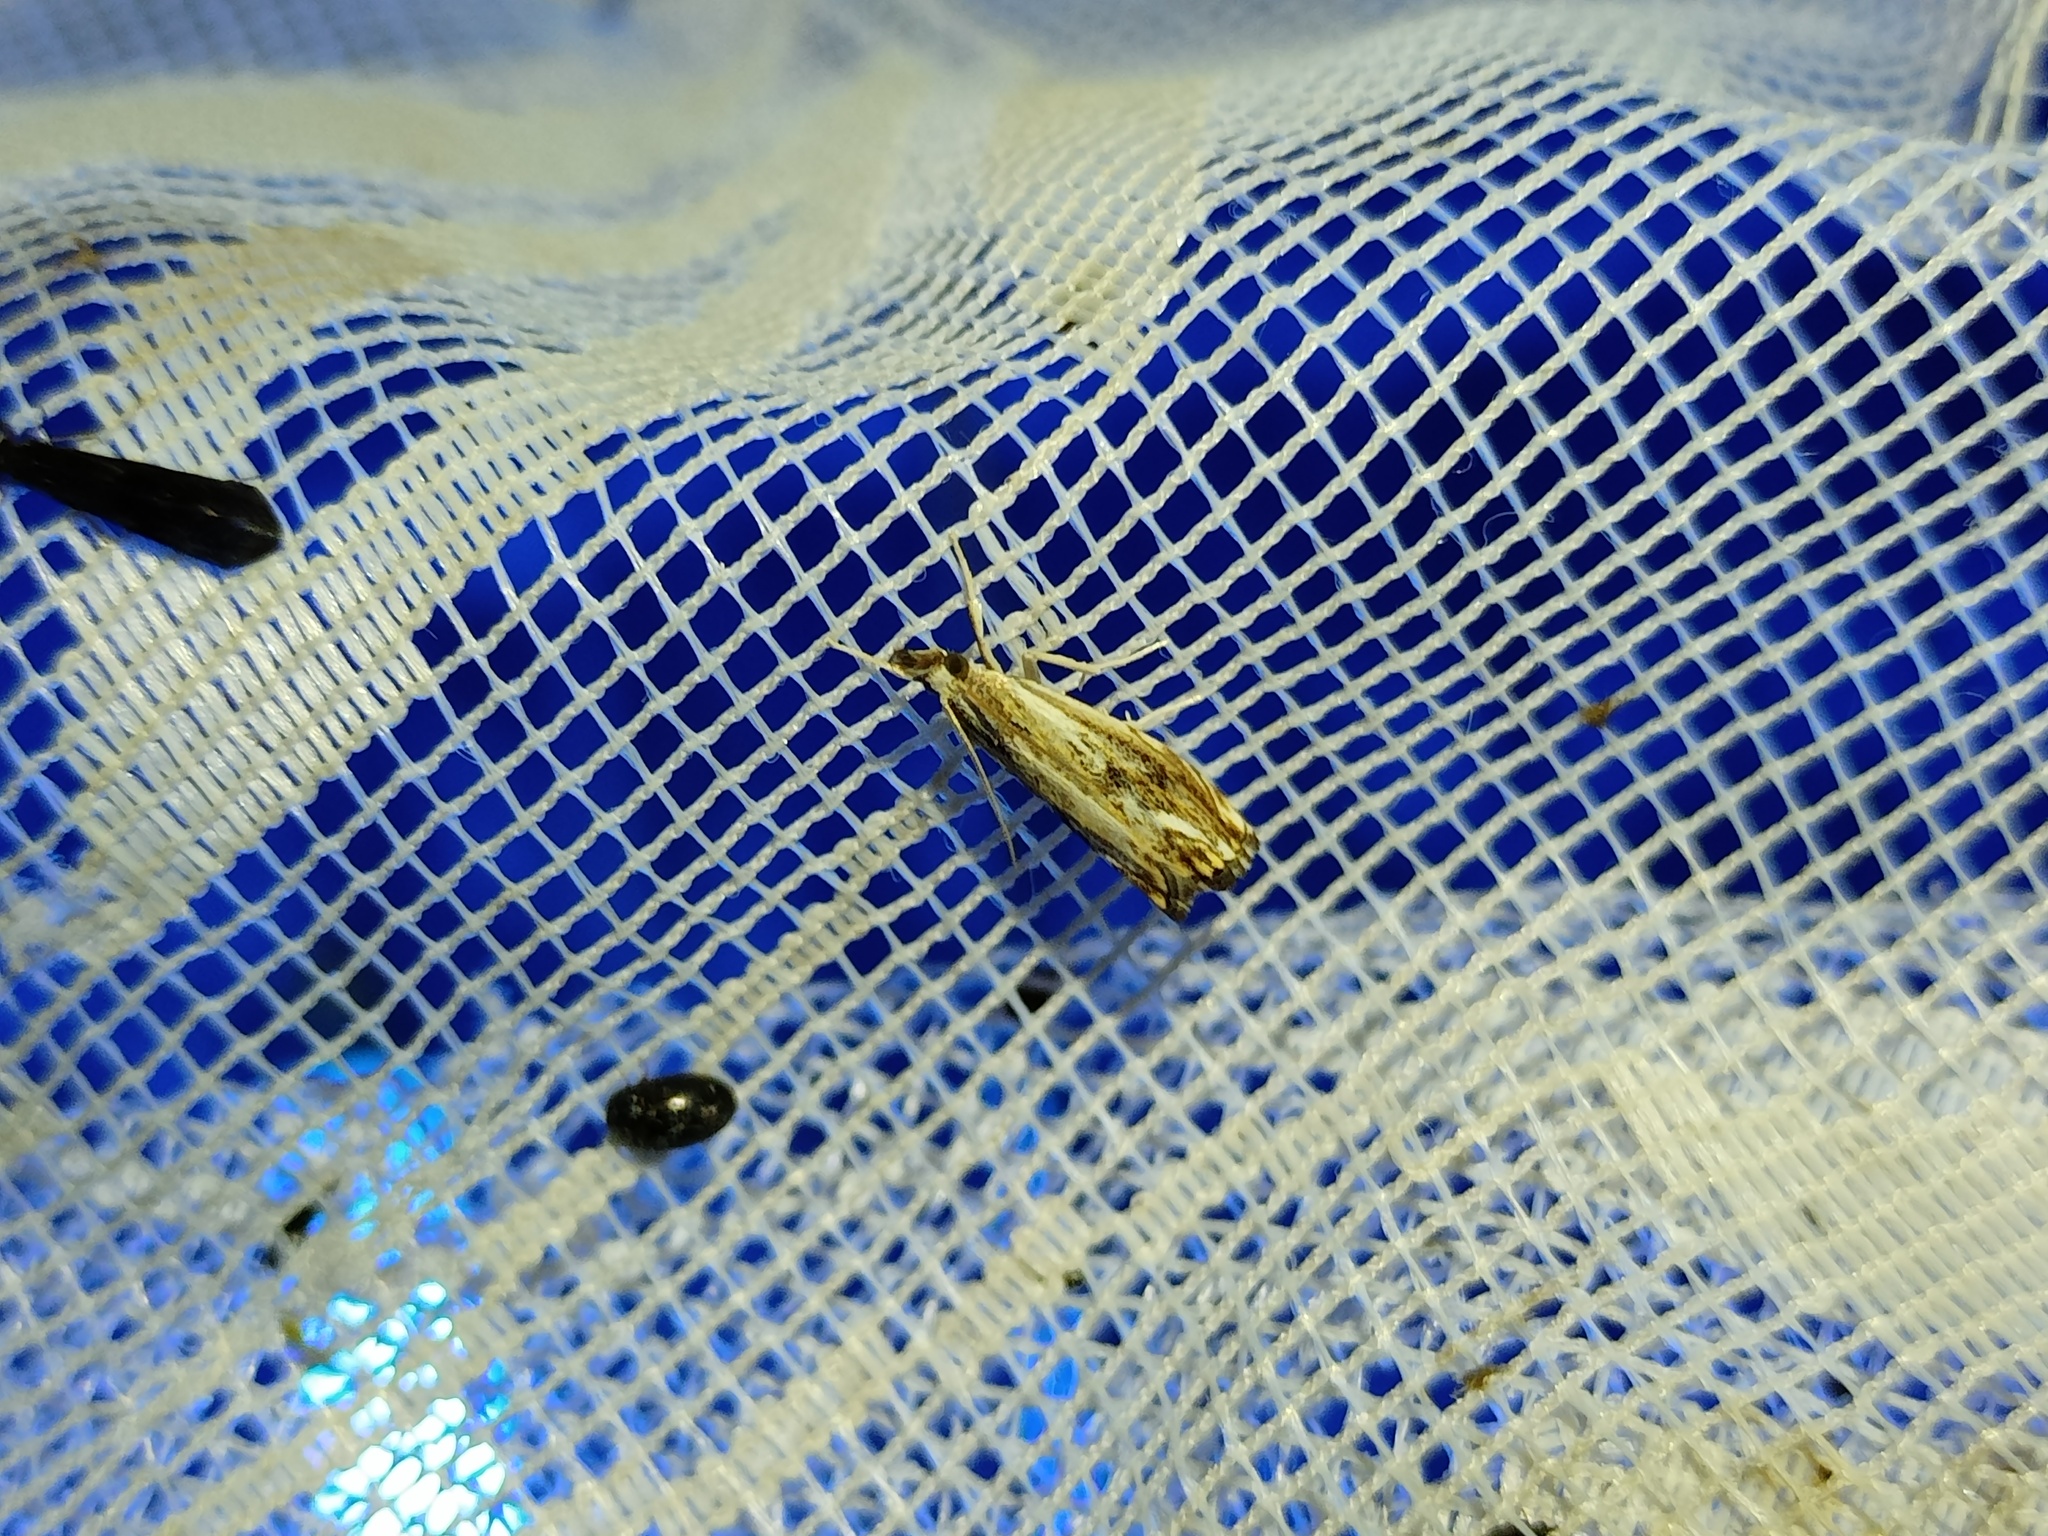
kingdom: Animalia
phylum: Arthropoda
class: Insecta
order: Lepidoptera
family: Crambidae
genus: Catoptria
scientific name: Catoptria verellus
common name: Marbled grass-veneer
